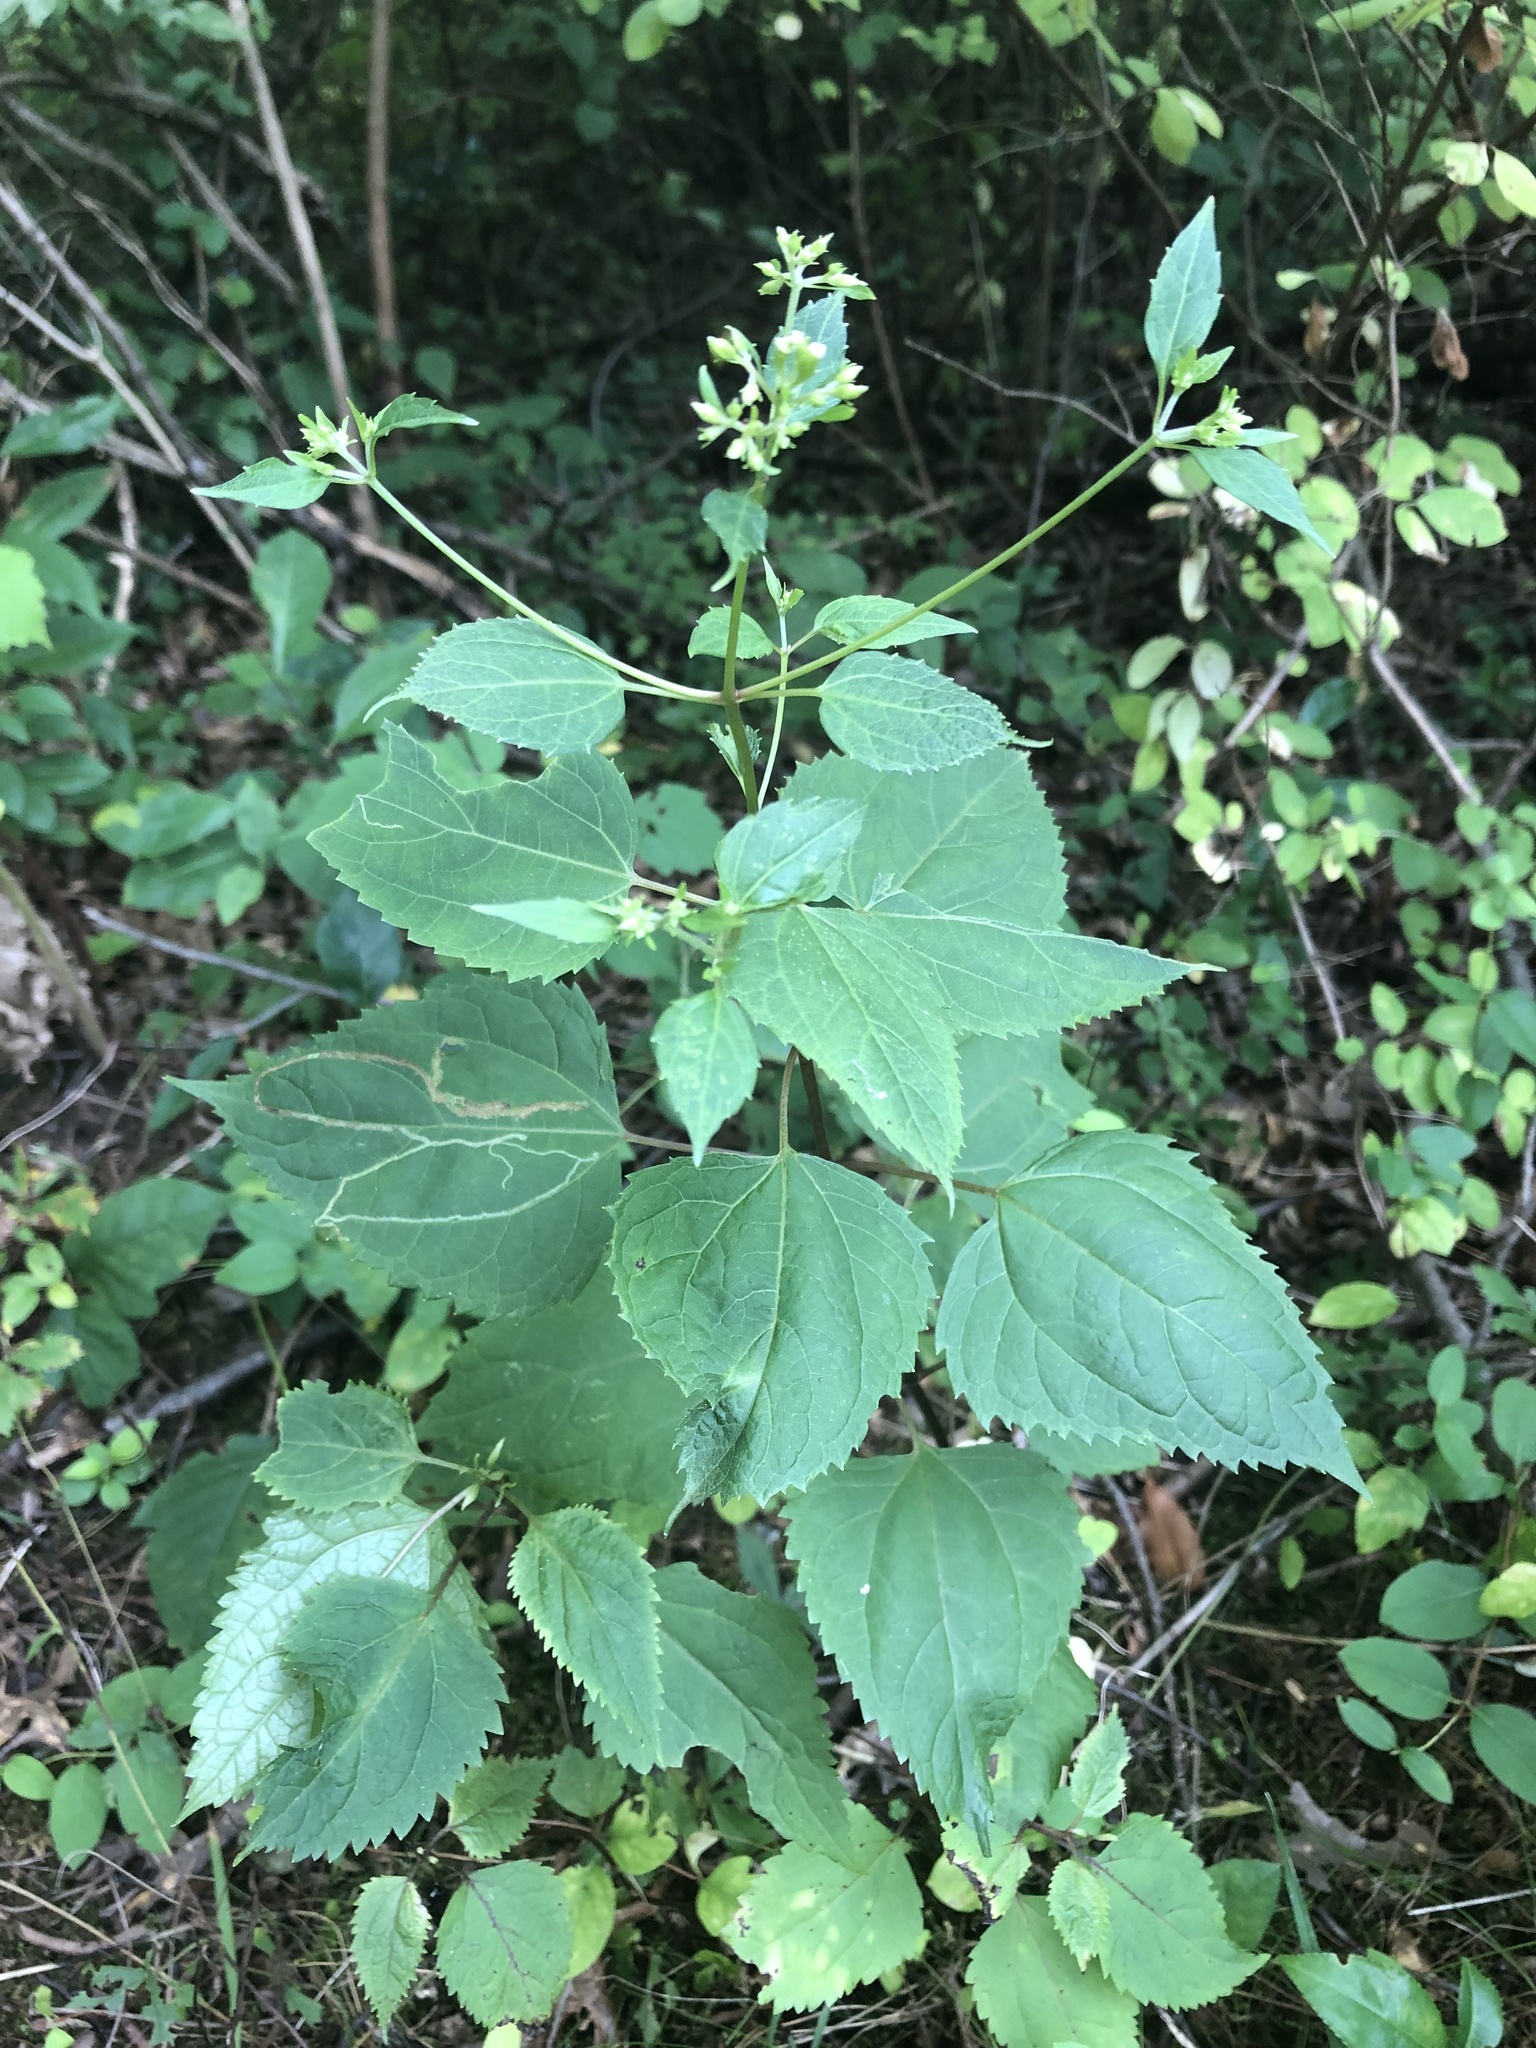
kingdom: Plantae
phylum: Tracheophyta
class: Magnoliopsida
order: Asterales
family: Asteraceae
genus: Ageratina
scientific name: Ageratina altissima
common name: White snakeroot
